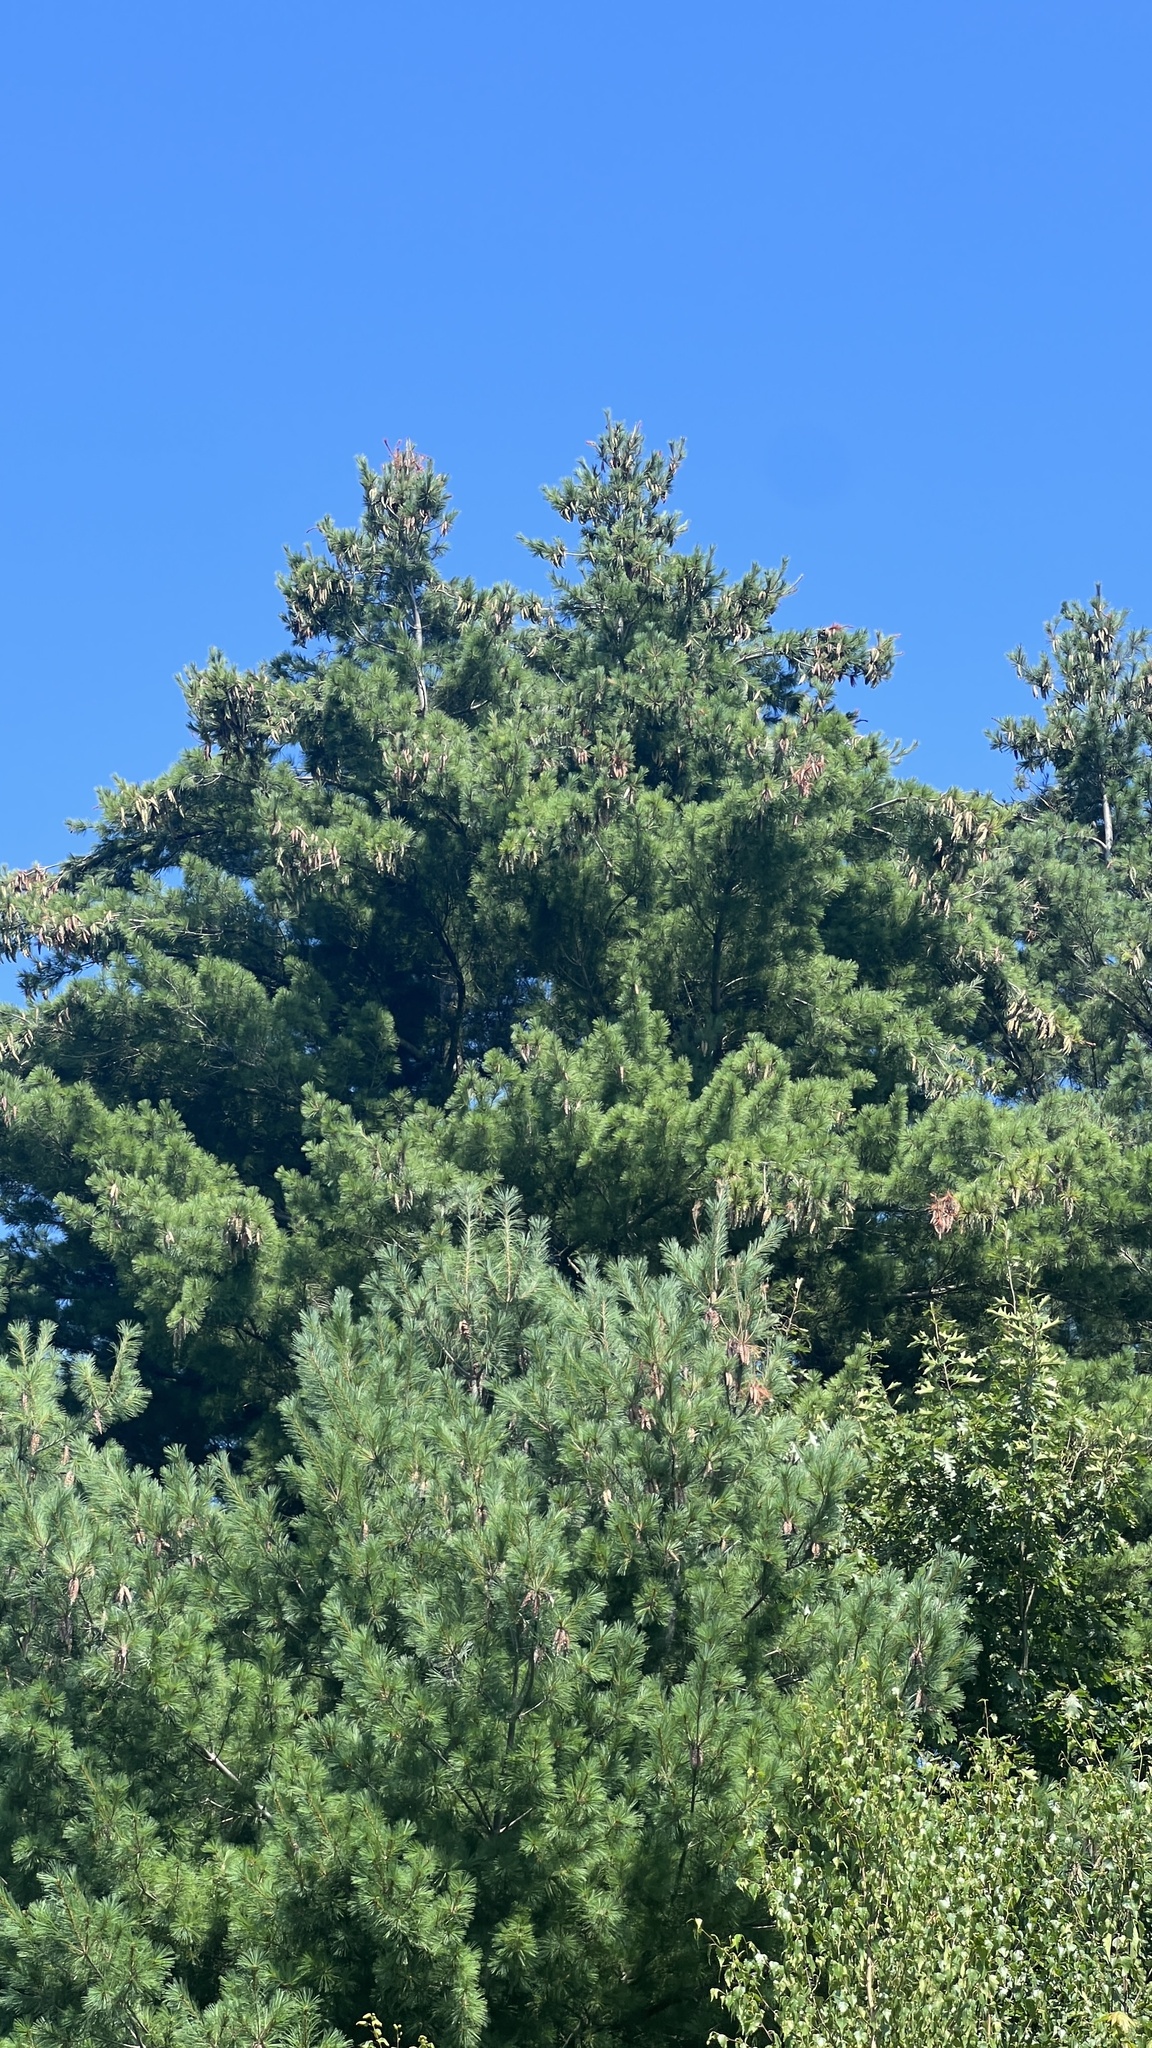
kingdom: Plantae
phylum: Tracheophyta
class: Pinopsida
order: Pinales
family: Pinaceae
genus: Pinus
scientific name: Pinus strobus
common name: Weymouth pine
